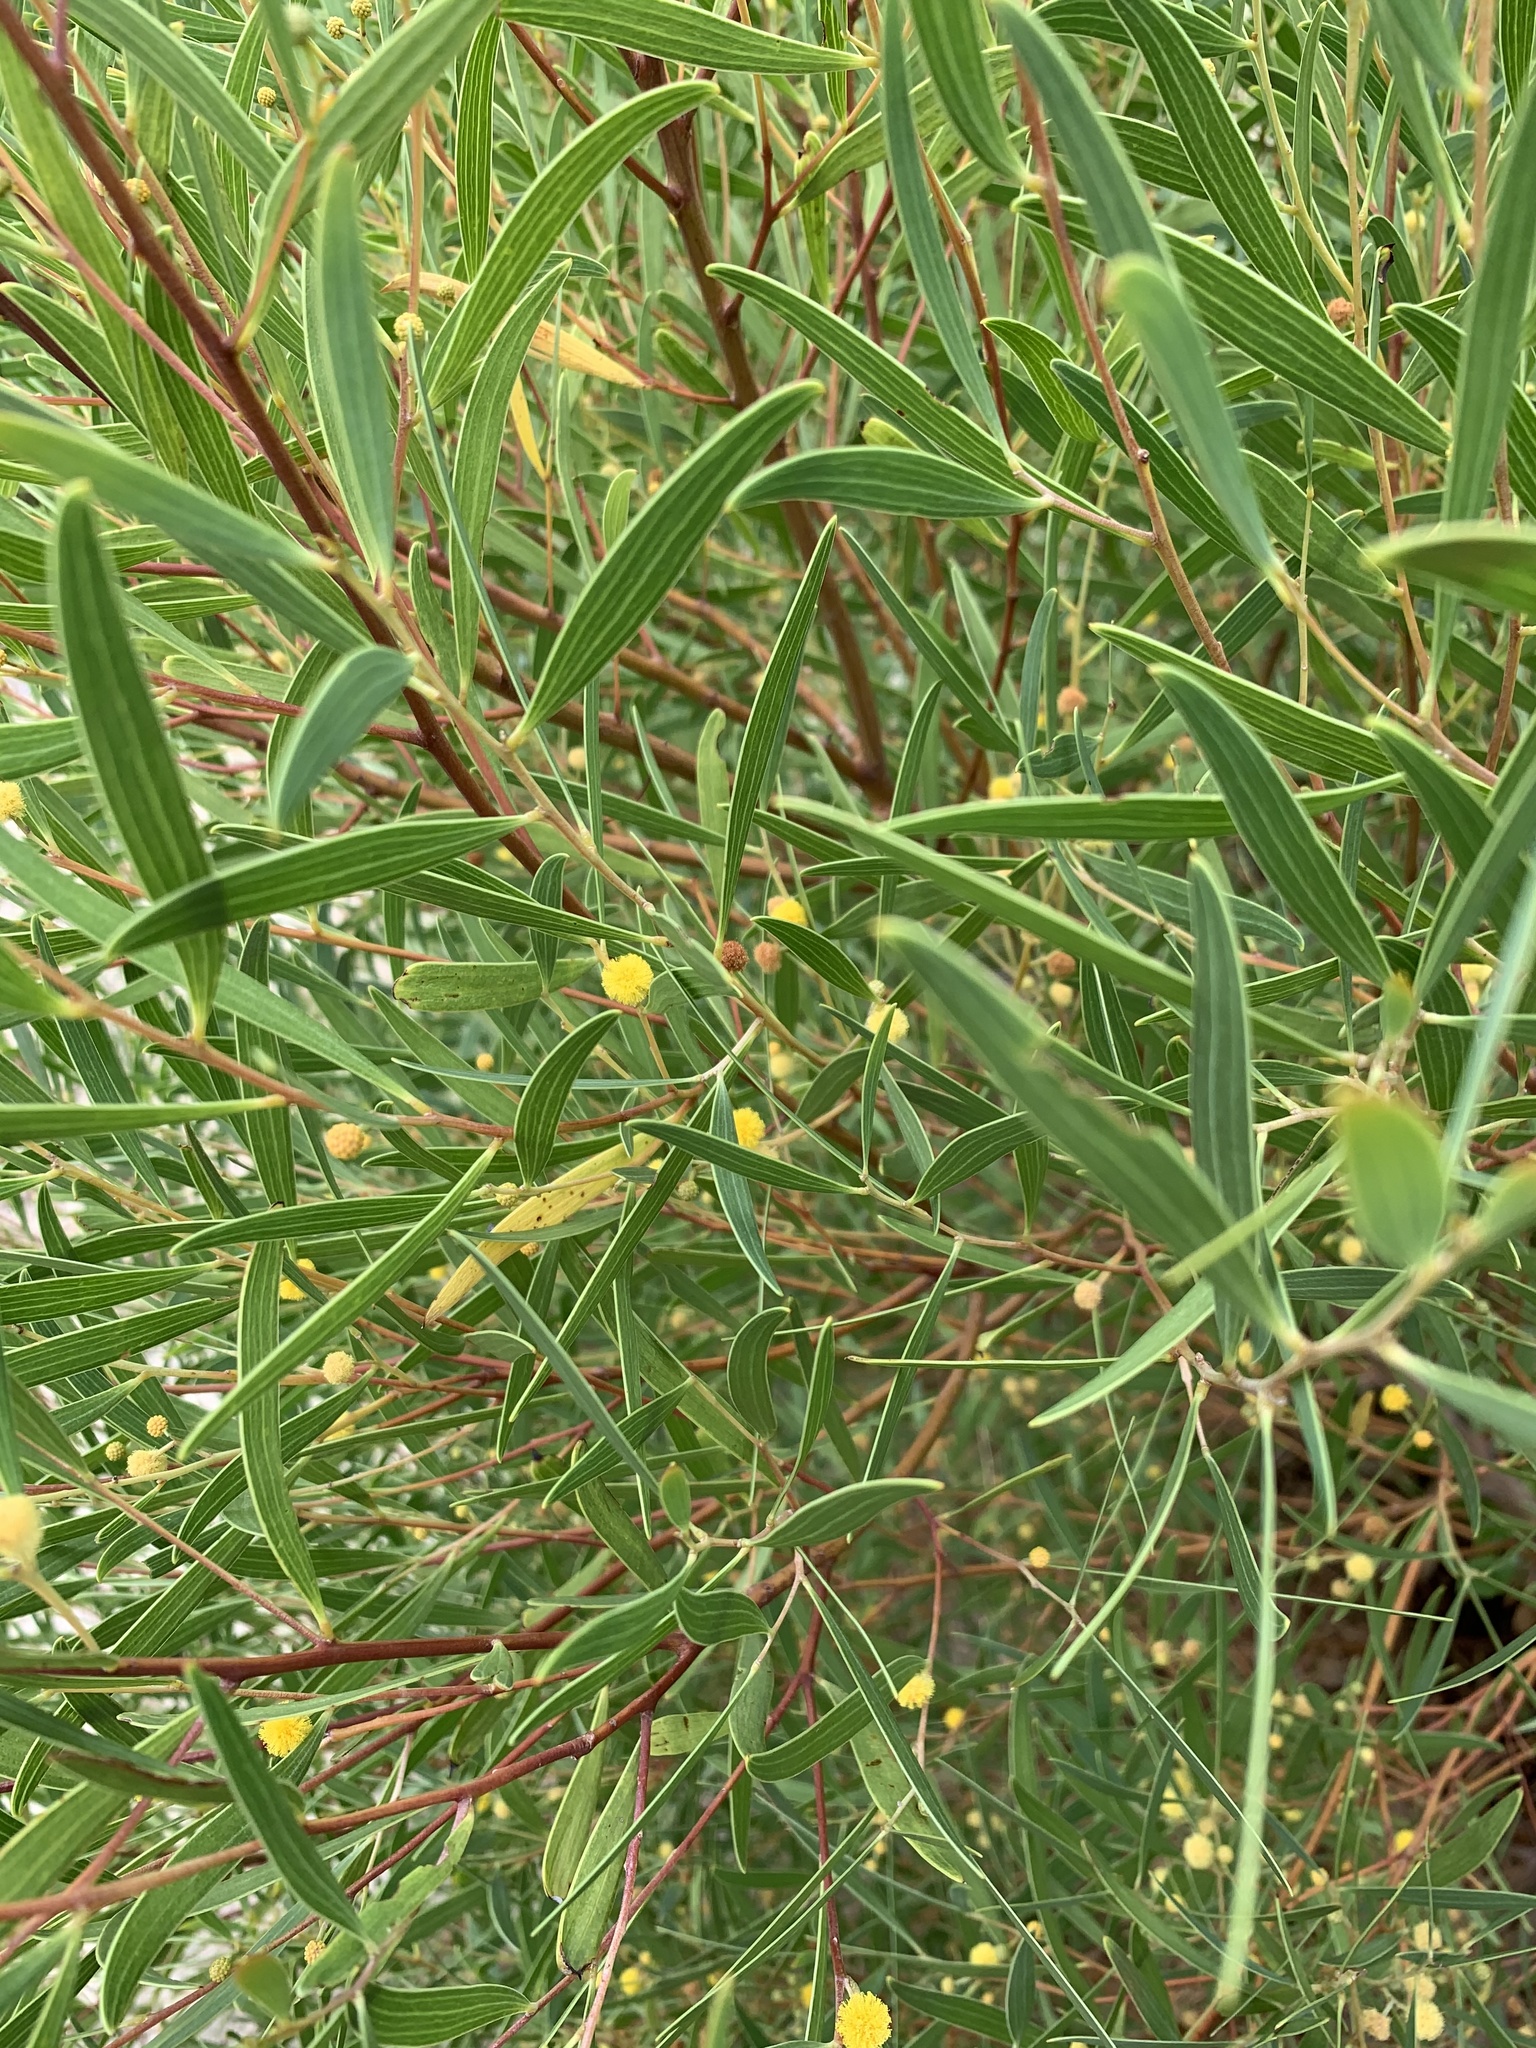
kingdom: Plantae
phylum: Tracheophyta
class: Magnoliopsida
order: Fabales
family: Fabaceae
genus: Acacia
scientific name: Acacia cyclops
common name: Coastal wattle
